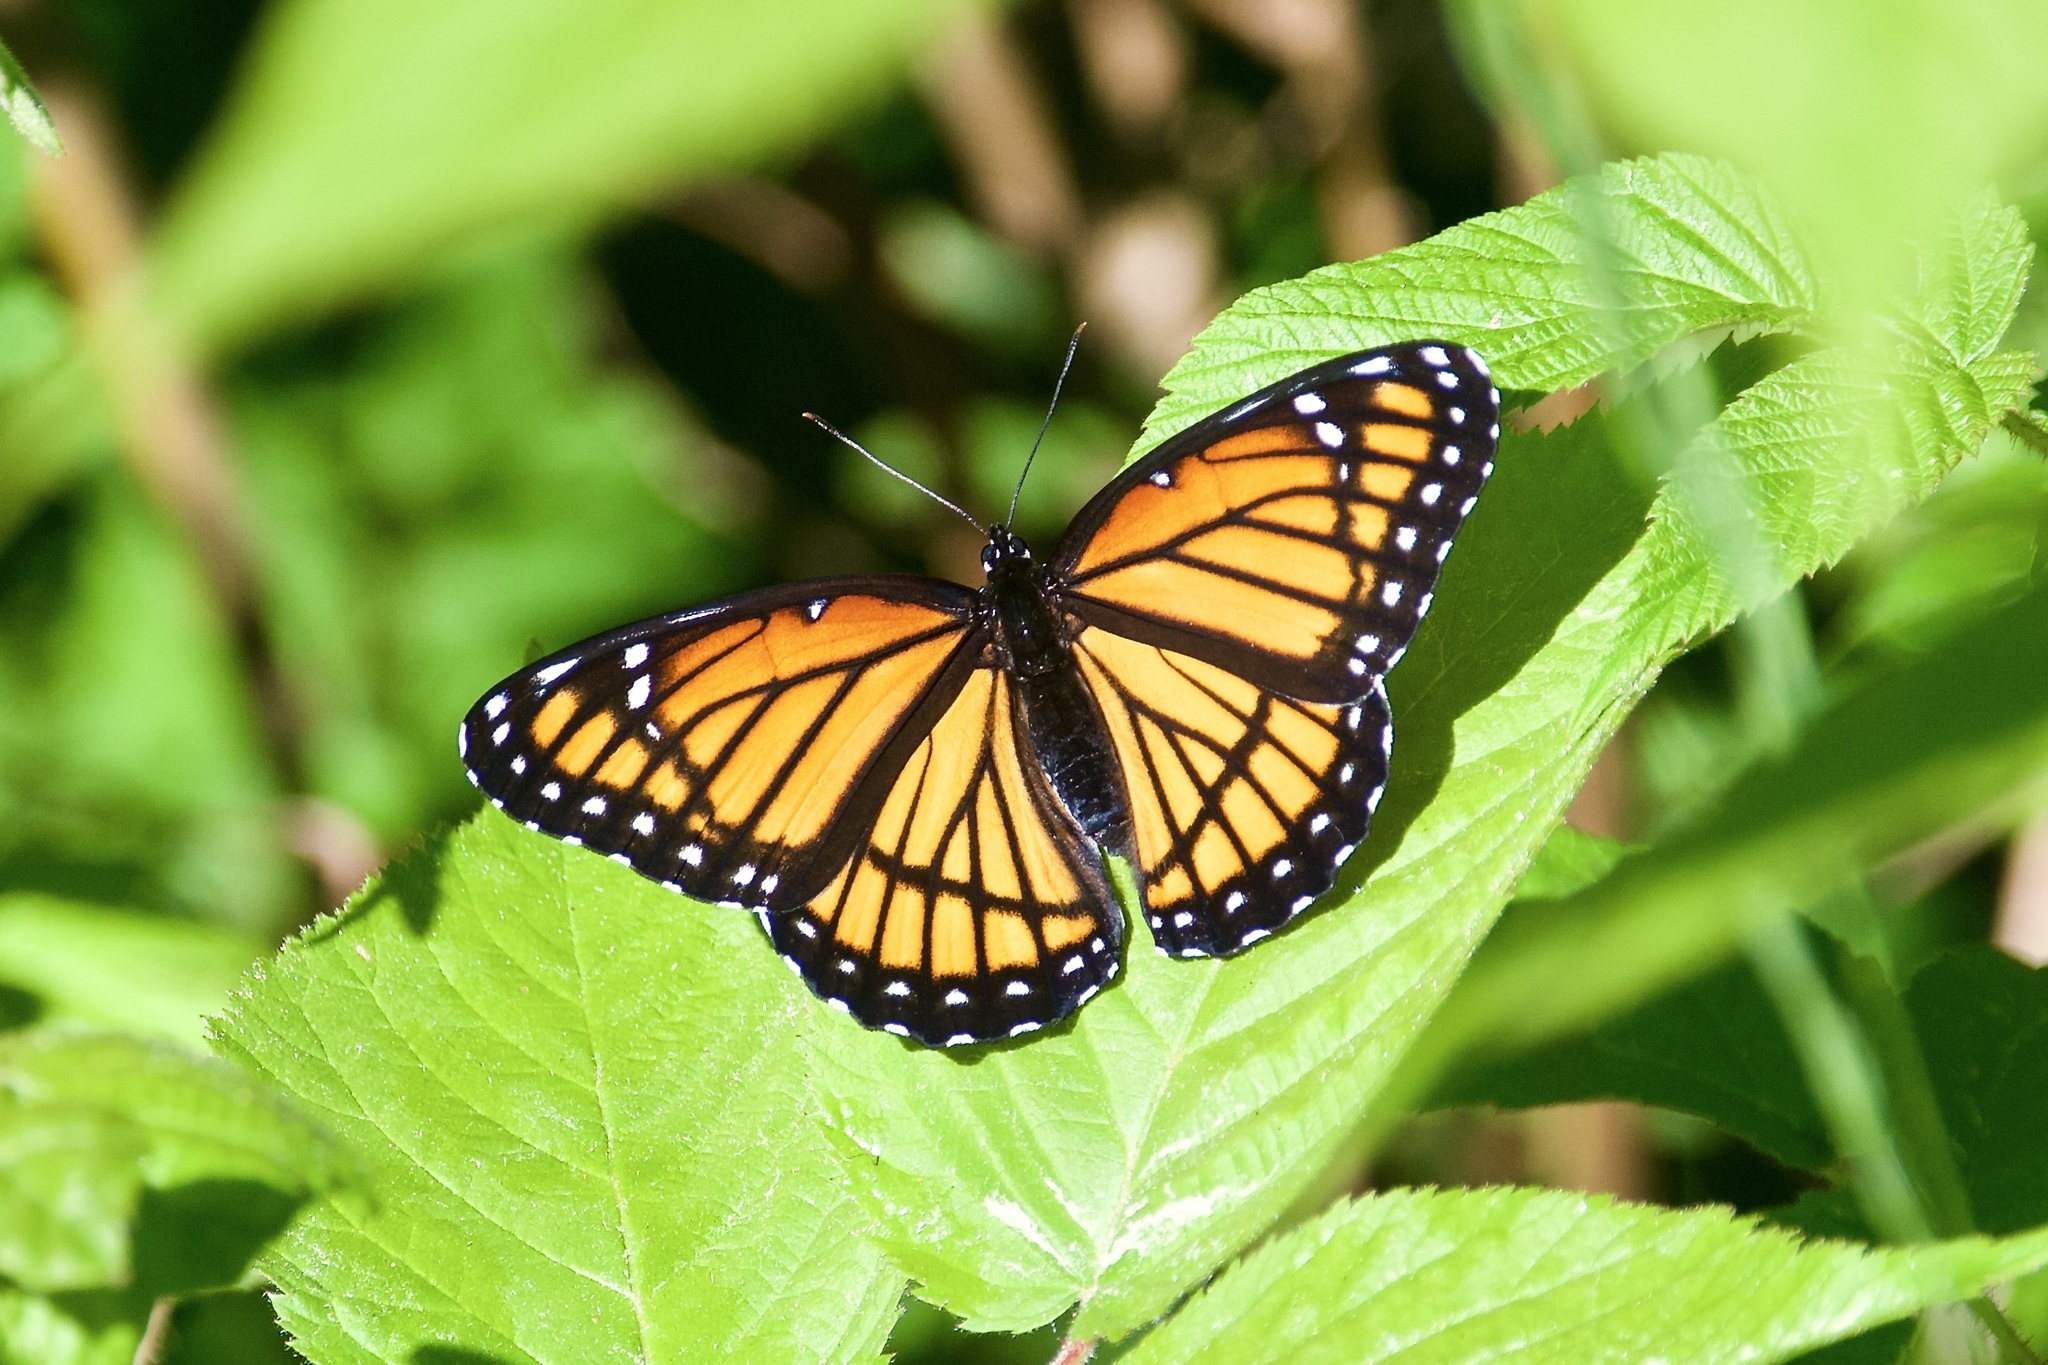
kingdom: Animalia
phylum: Arthropoda
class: Insecta
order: Lepidoptera
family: Nymphalidae
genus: Limenitis
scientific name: Limenitis archippus
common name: Viceroy
